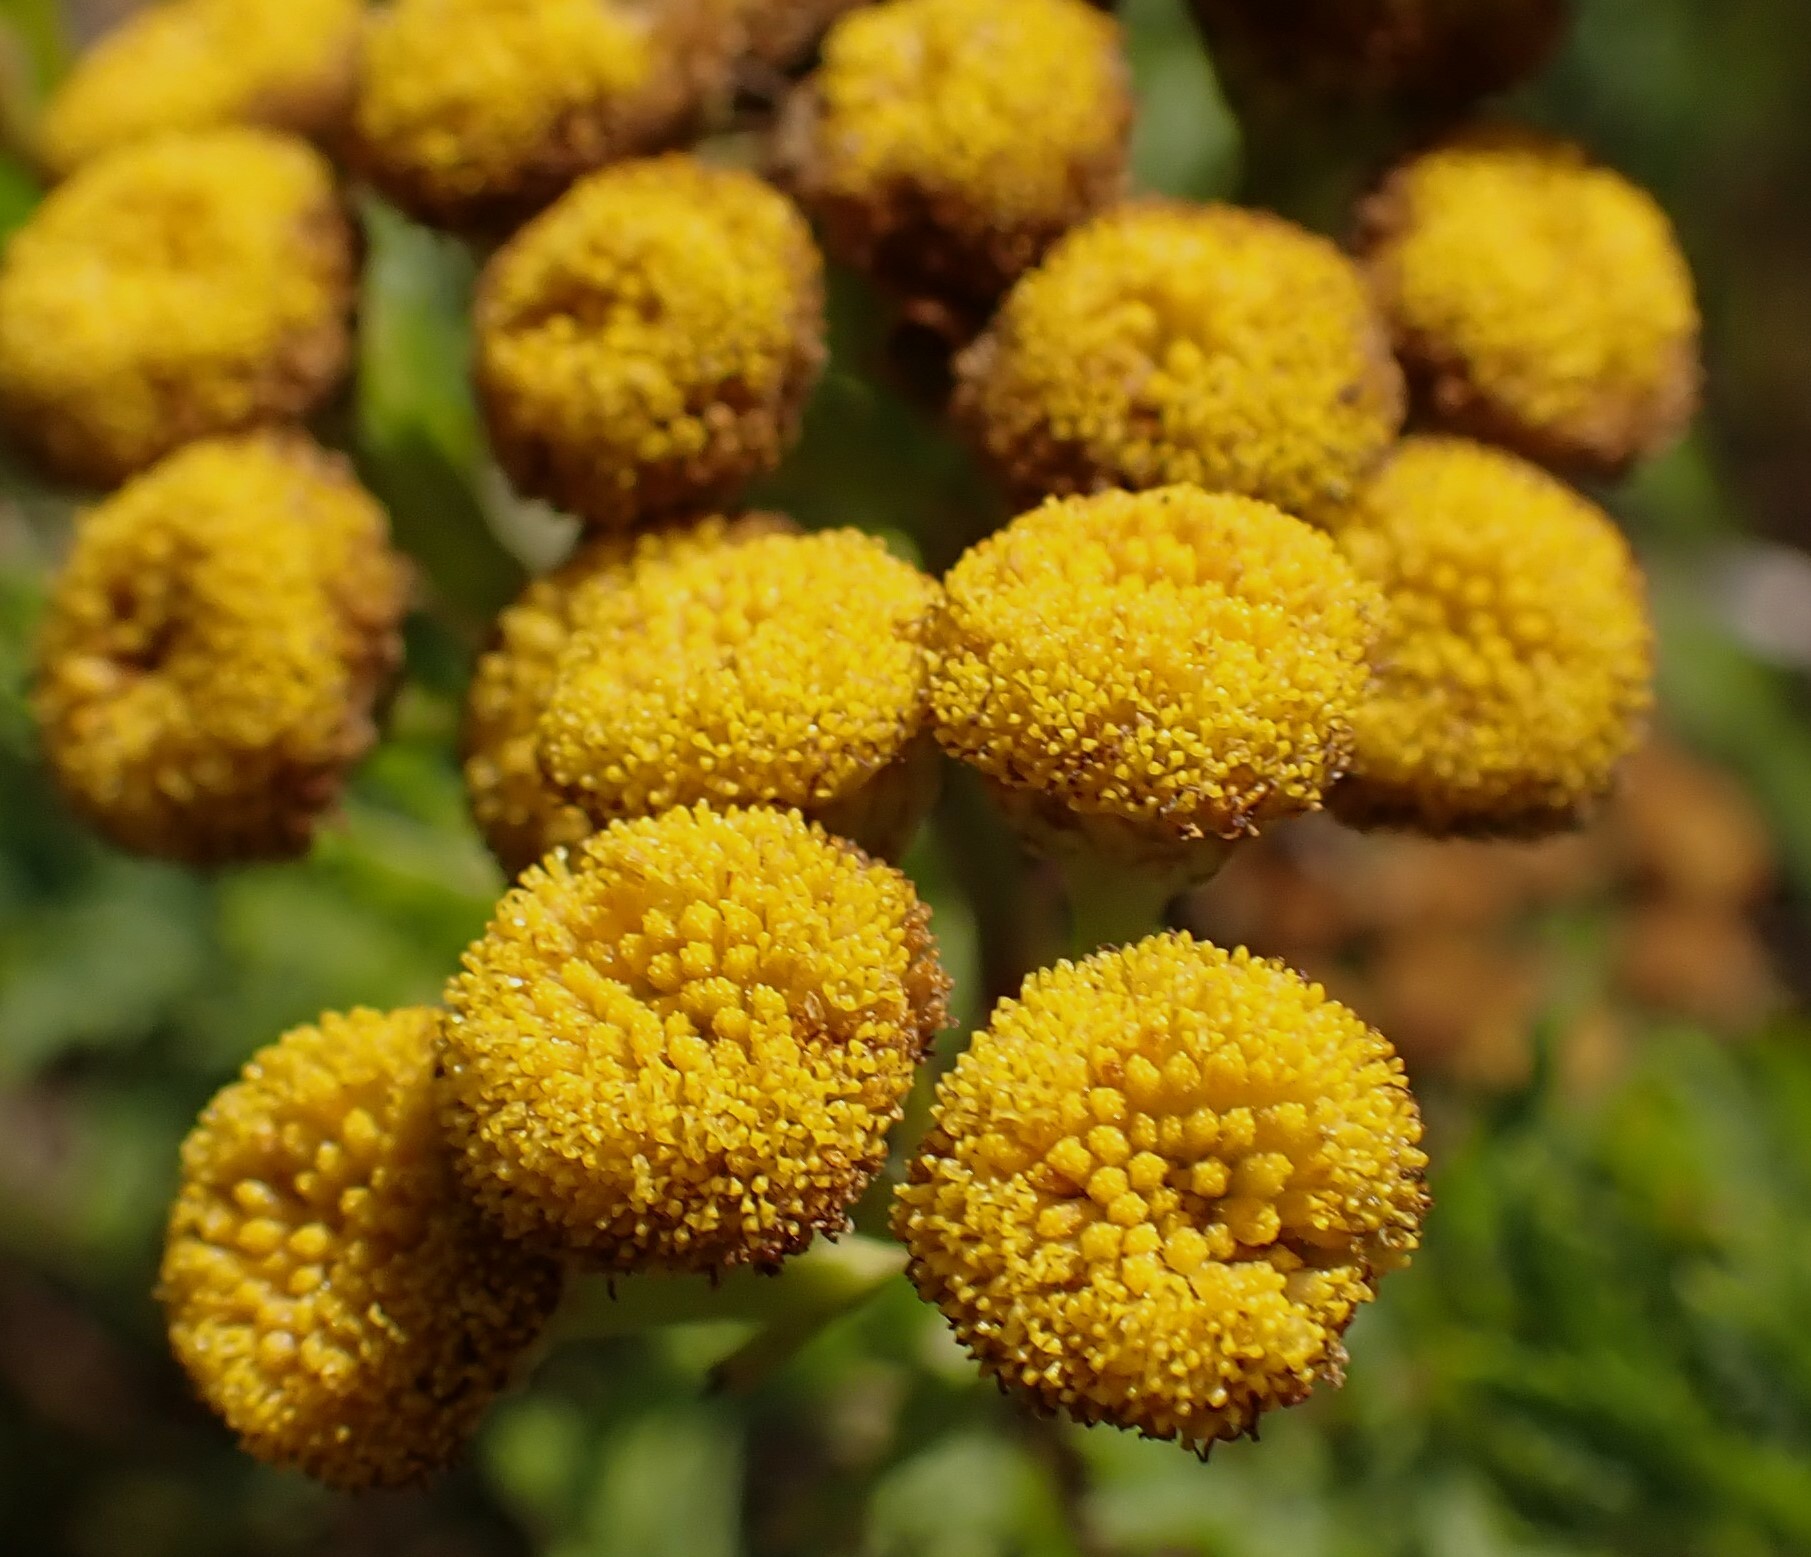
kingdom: Plantae
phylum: Tracheophyta
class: Magnoliopsida
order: Asterales
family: Asteraceae
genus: Tanacetum
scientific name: Tanacetum vulgare
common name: Common tansy
